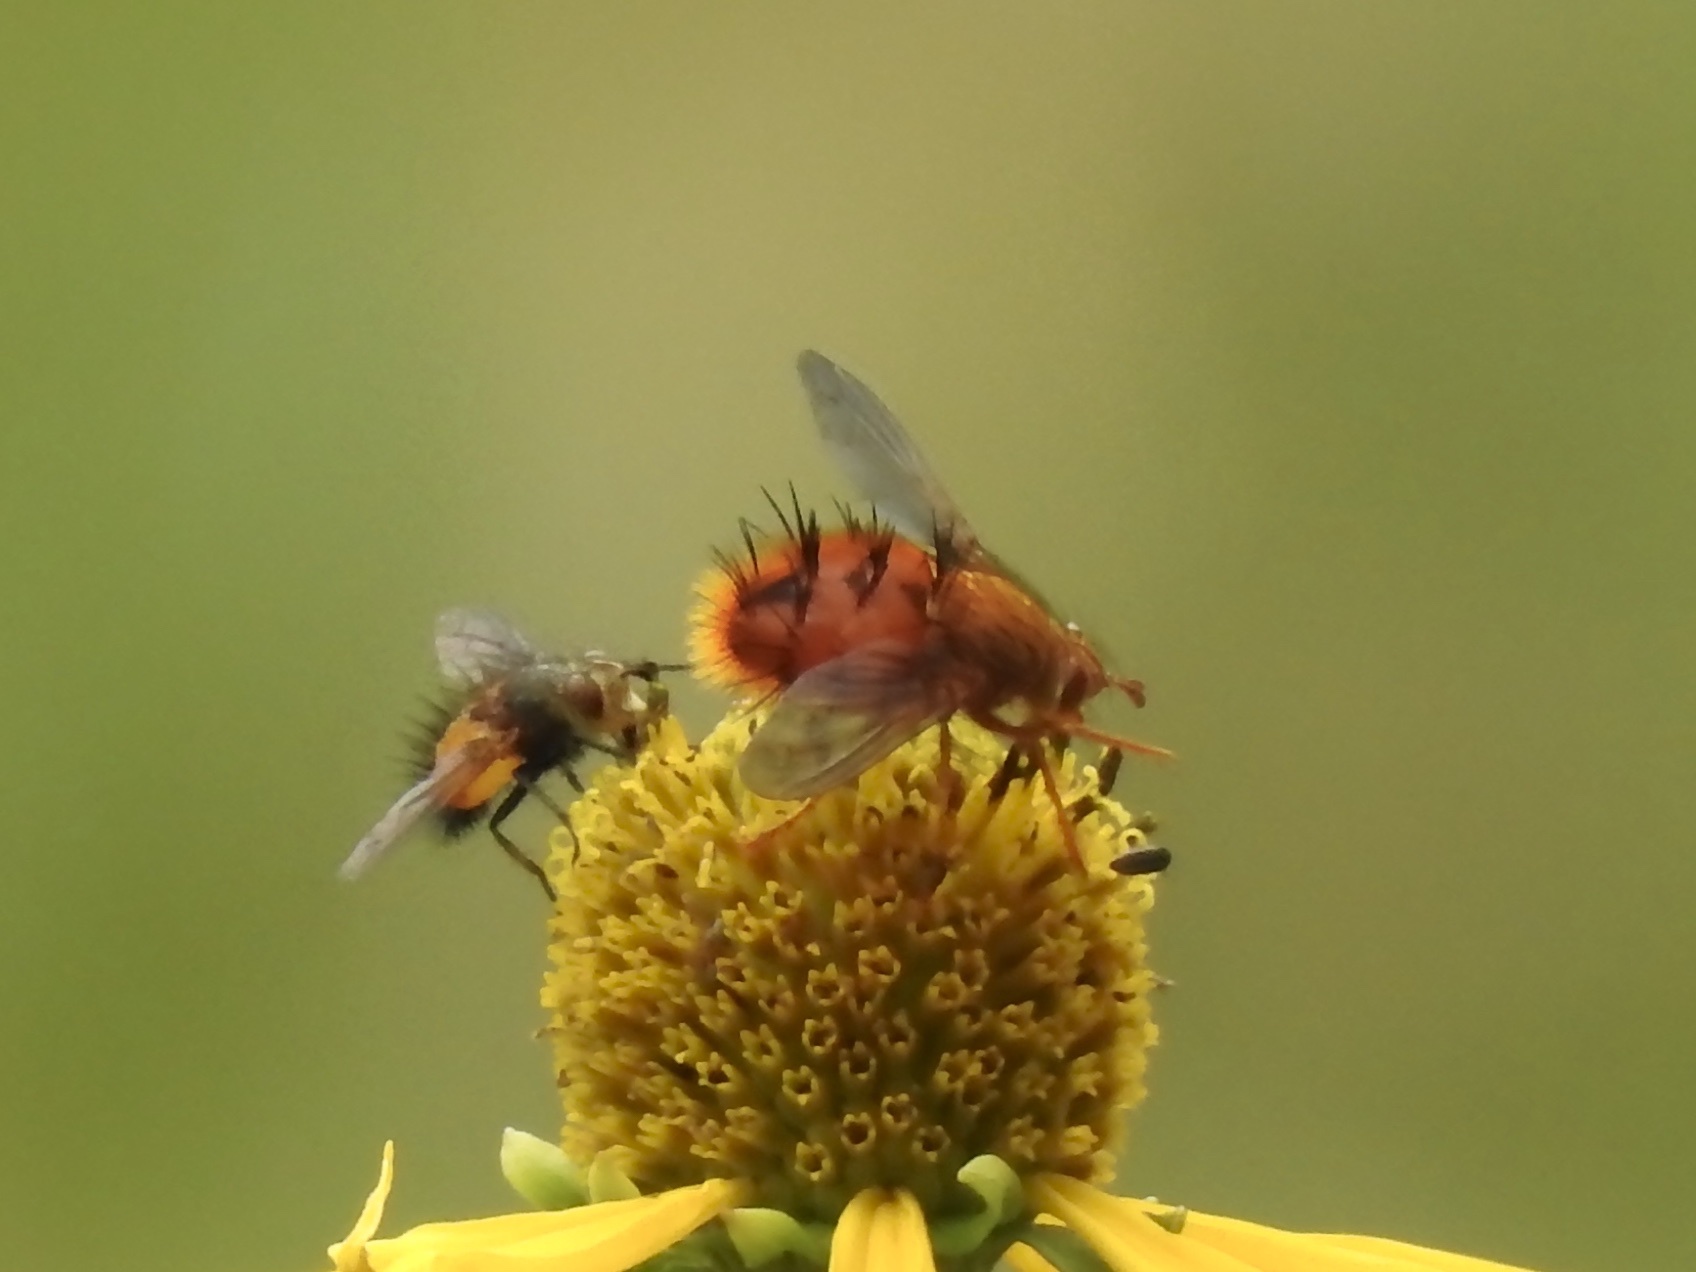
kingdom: Animalia
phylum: Arthropoda
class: Insecta
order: Diptera
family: Tachinidae
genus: Adejeania
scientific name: Adejeania vexatrix
